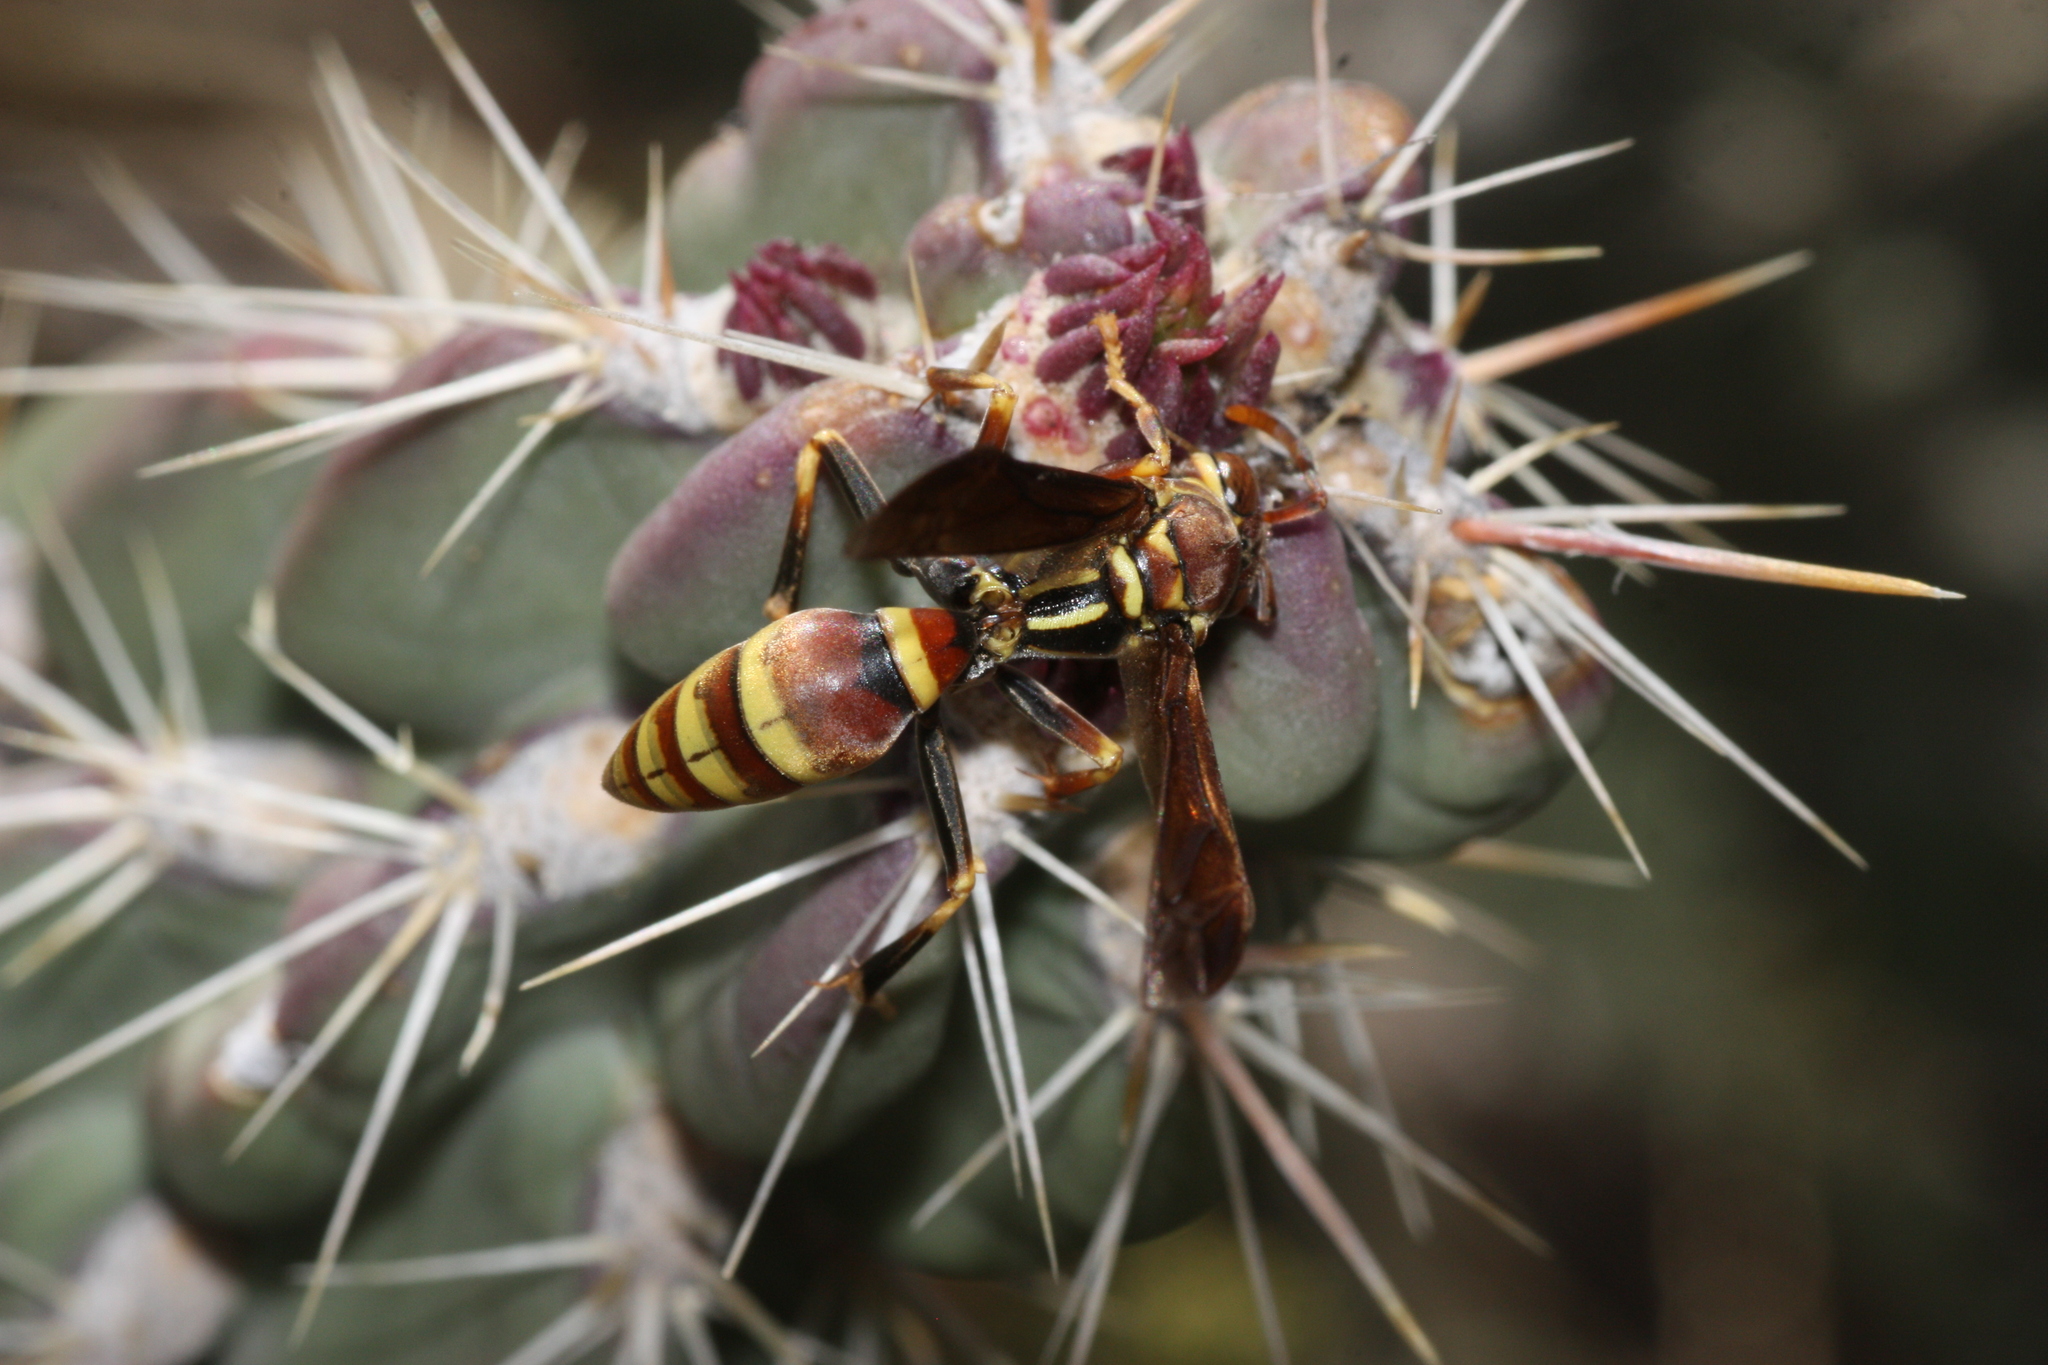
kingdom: Animalia
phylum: Arthropoda
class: Insecta
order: Hymenoptera
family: Eumenidae
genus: Polistes
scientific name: Polistes exclamans
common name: Paper wasp
